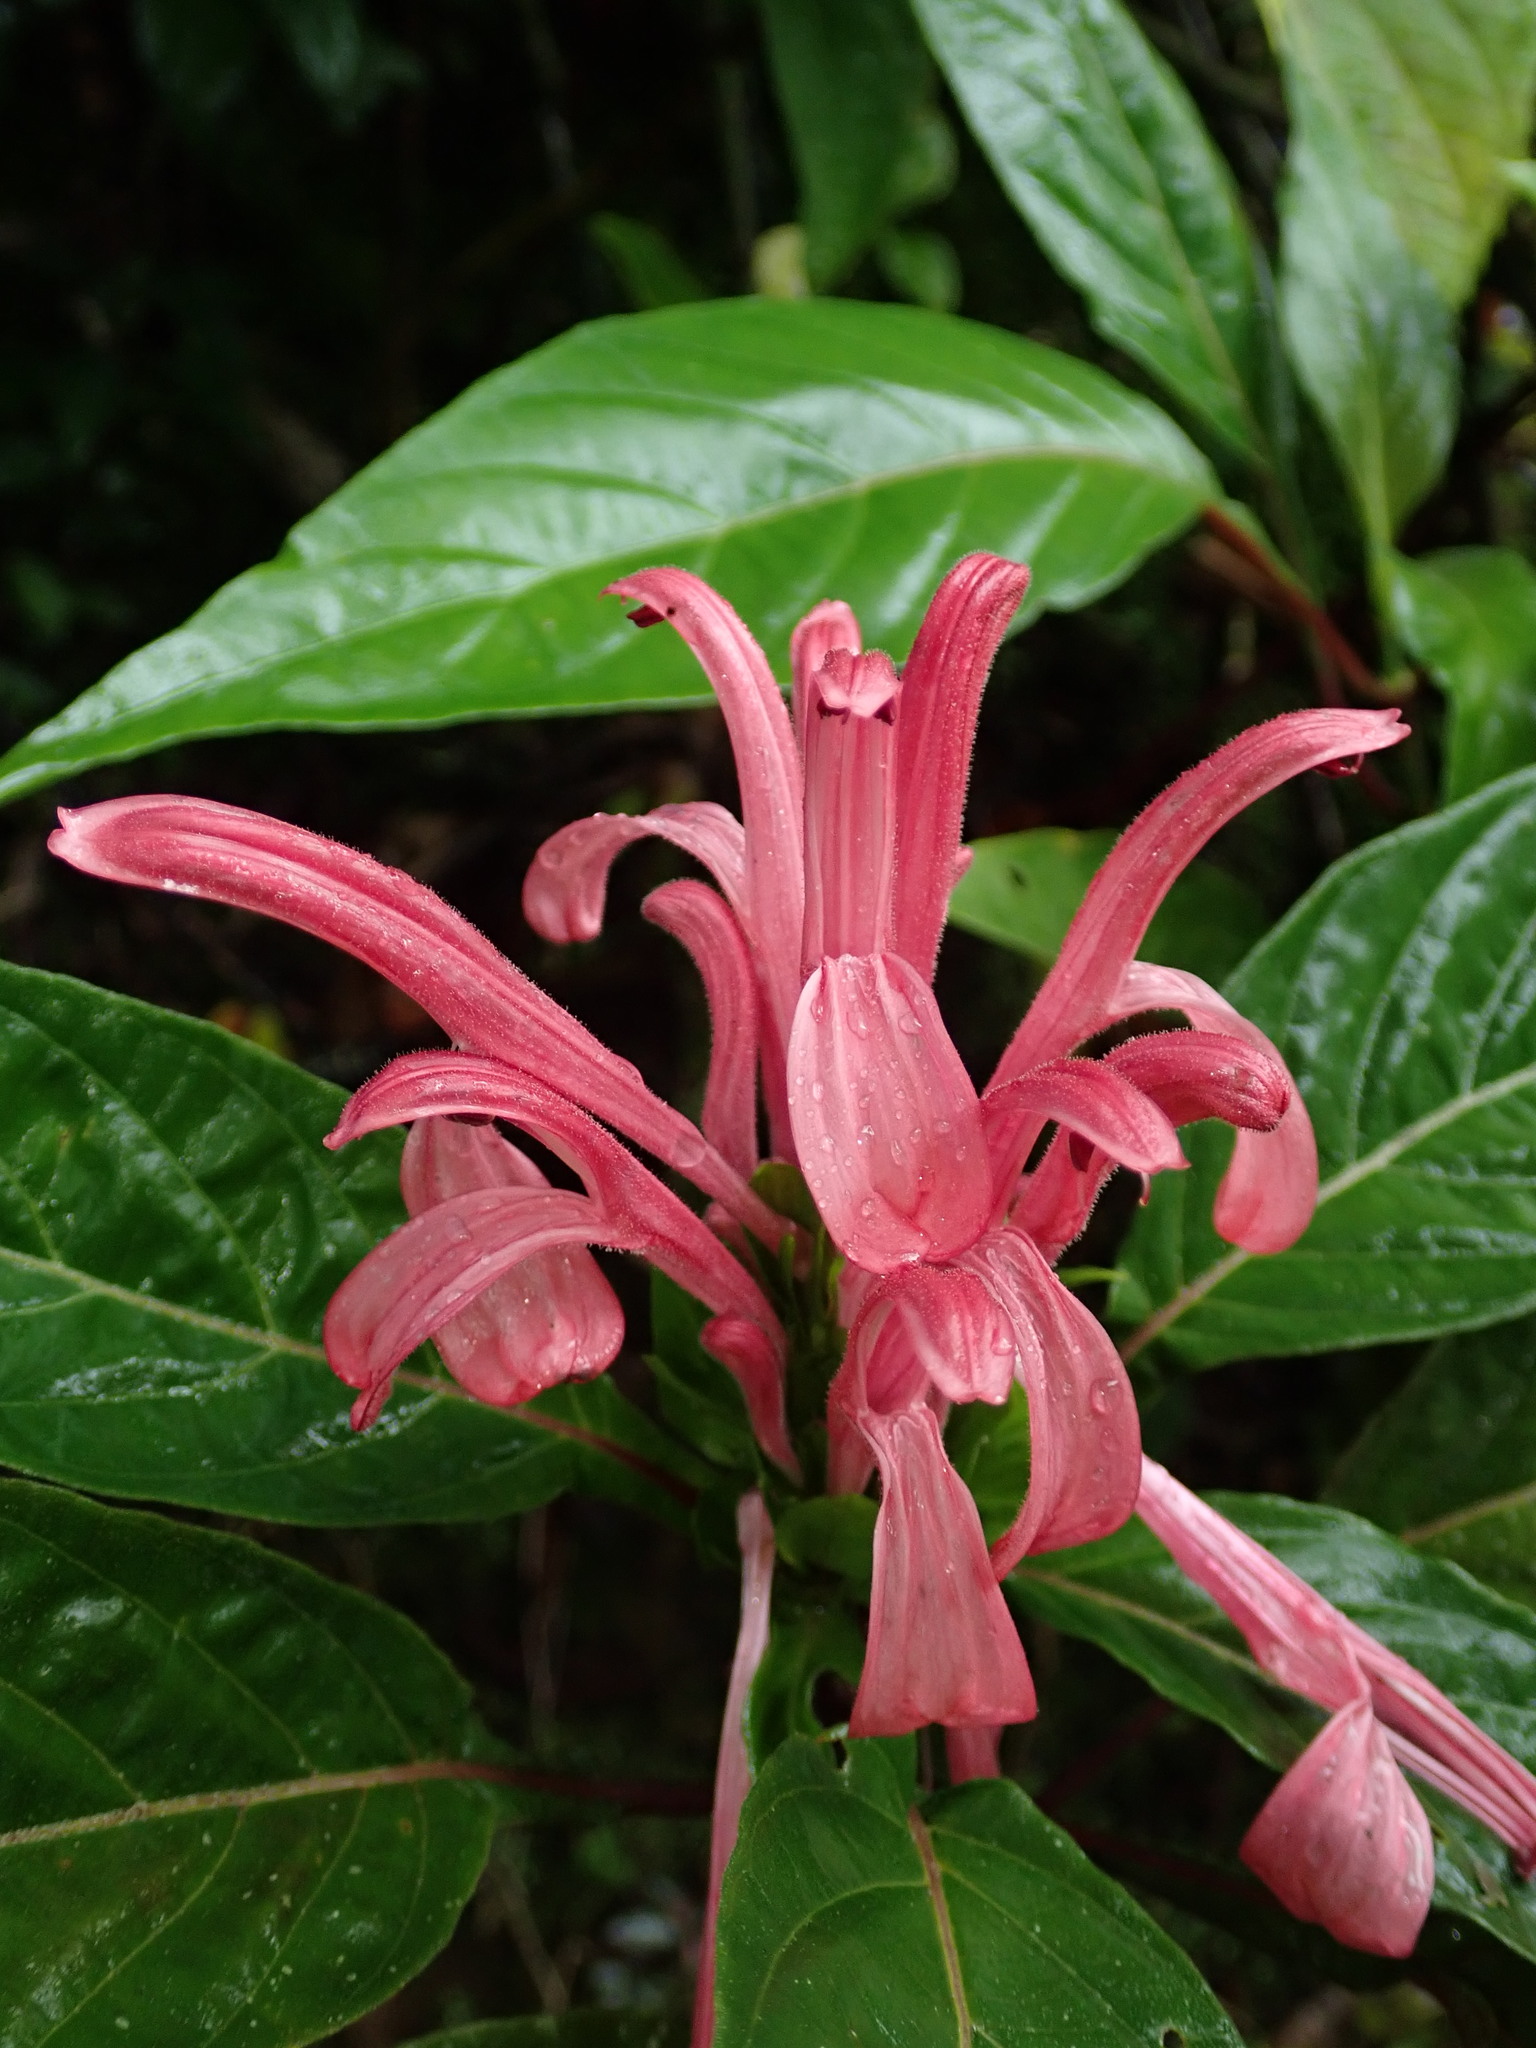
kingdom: Plantae
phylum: Tracheophyta
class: Magnoliopsida
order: Lamiales
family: Acanthaceae
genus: Justicia
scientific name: Justicia carnea
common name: Brazilian-plume
